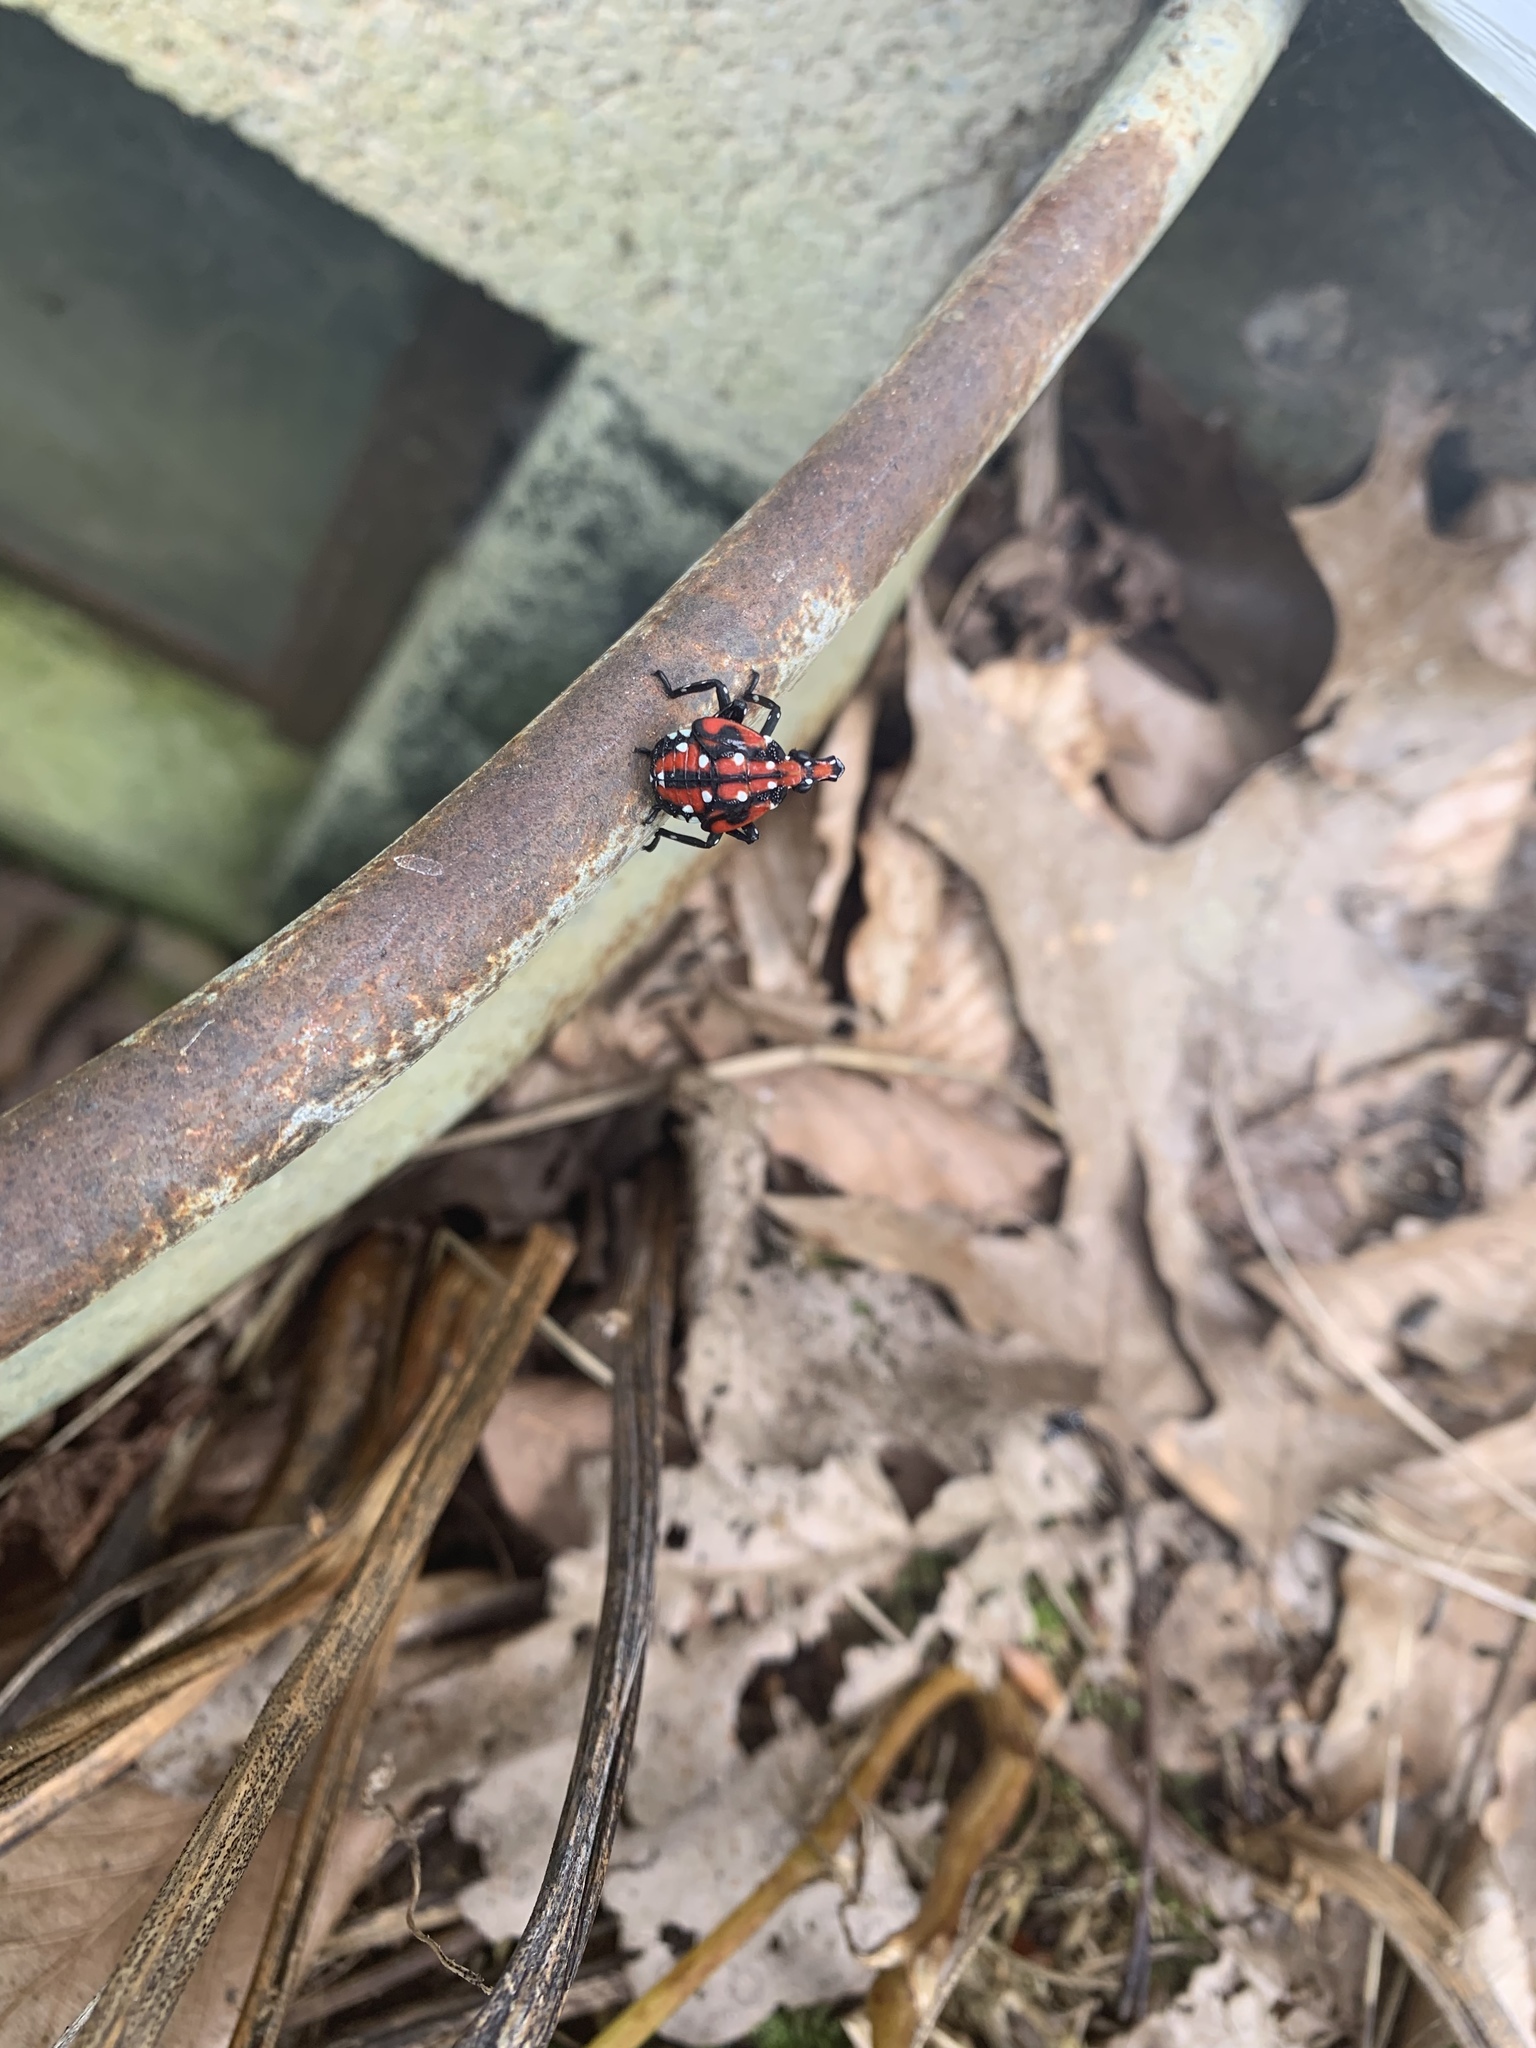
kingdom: Animalia
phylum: Arthropoda
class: Insecta
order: Hemiptera
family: Fulgoridae
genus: Lycorma
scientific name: Lycorma delicatula
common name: Spotted lanternfly
